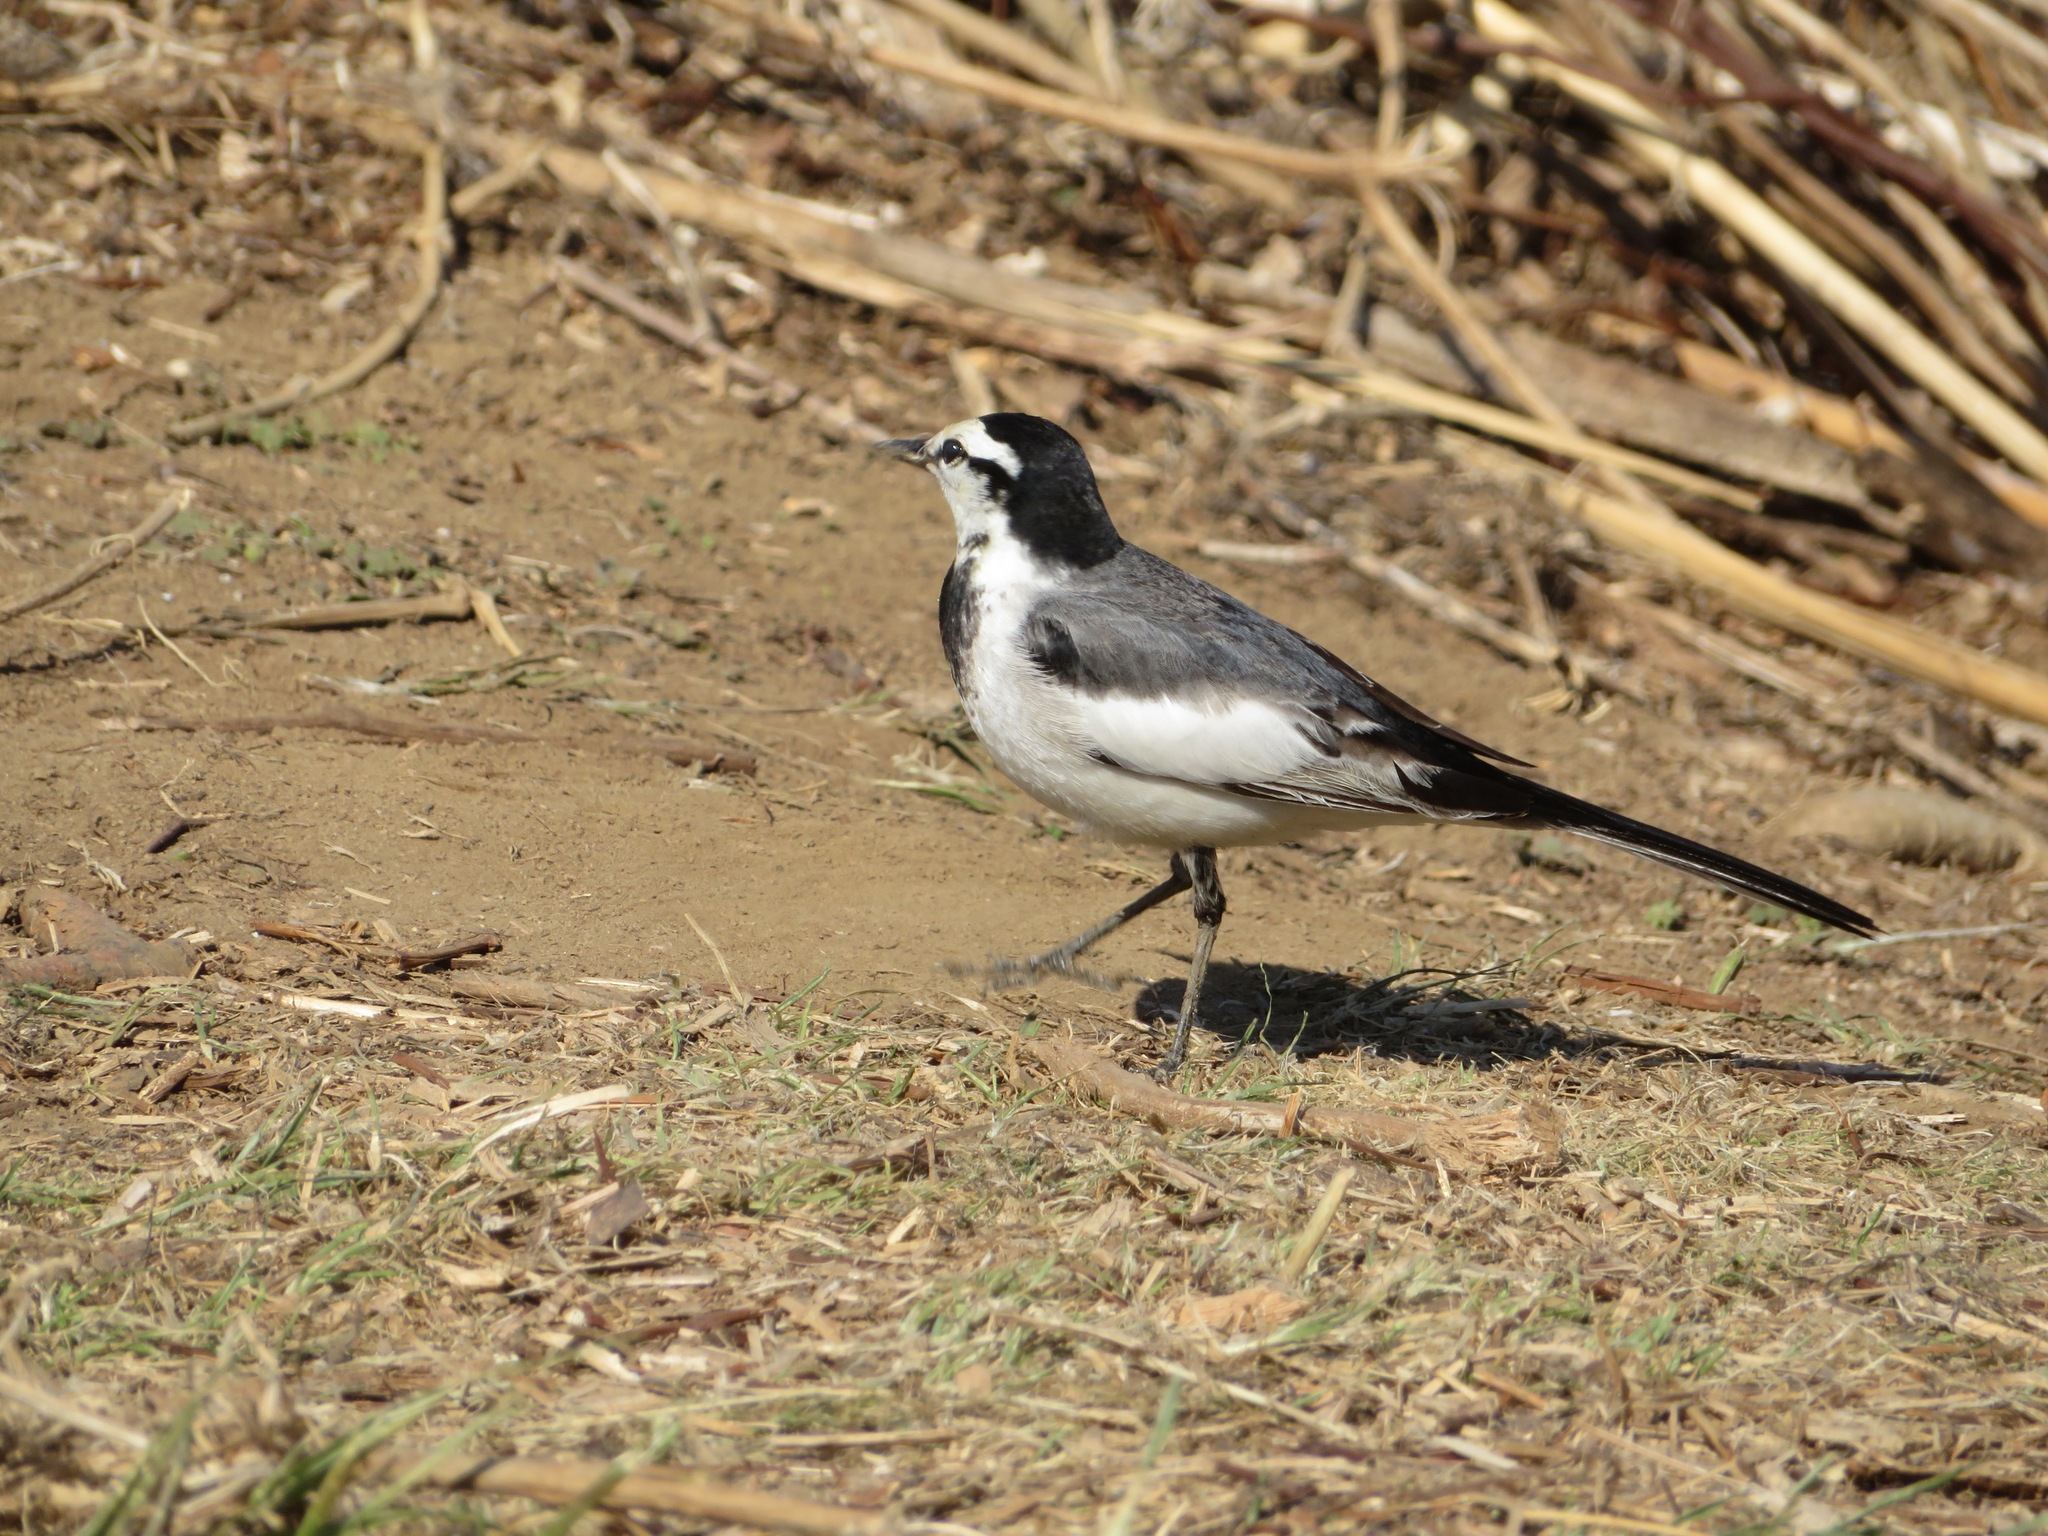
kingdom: Animalia
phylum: Chordata
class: Aves
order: Passeriformes
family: Motacillidae
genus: Motacilla
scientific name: Motacilla alba
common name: White wagtail
